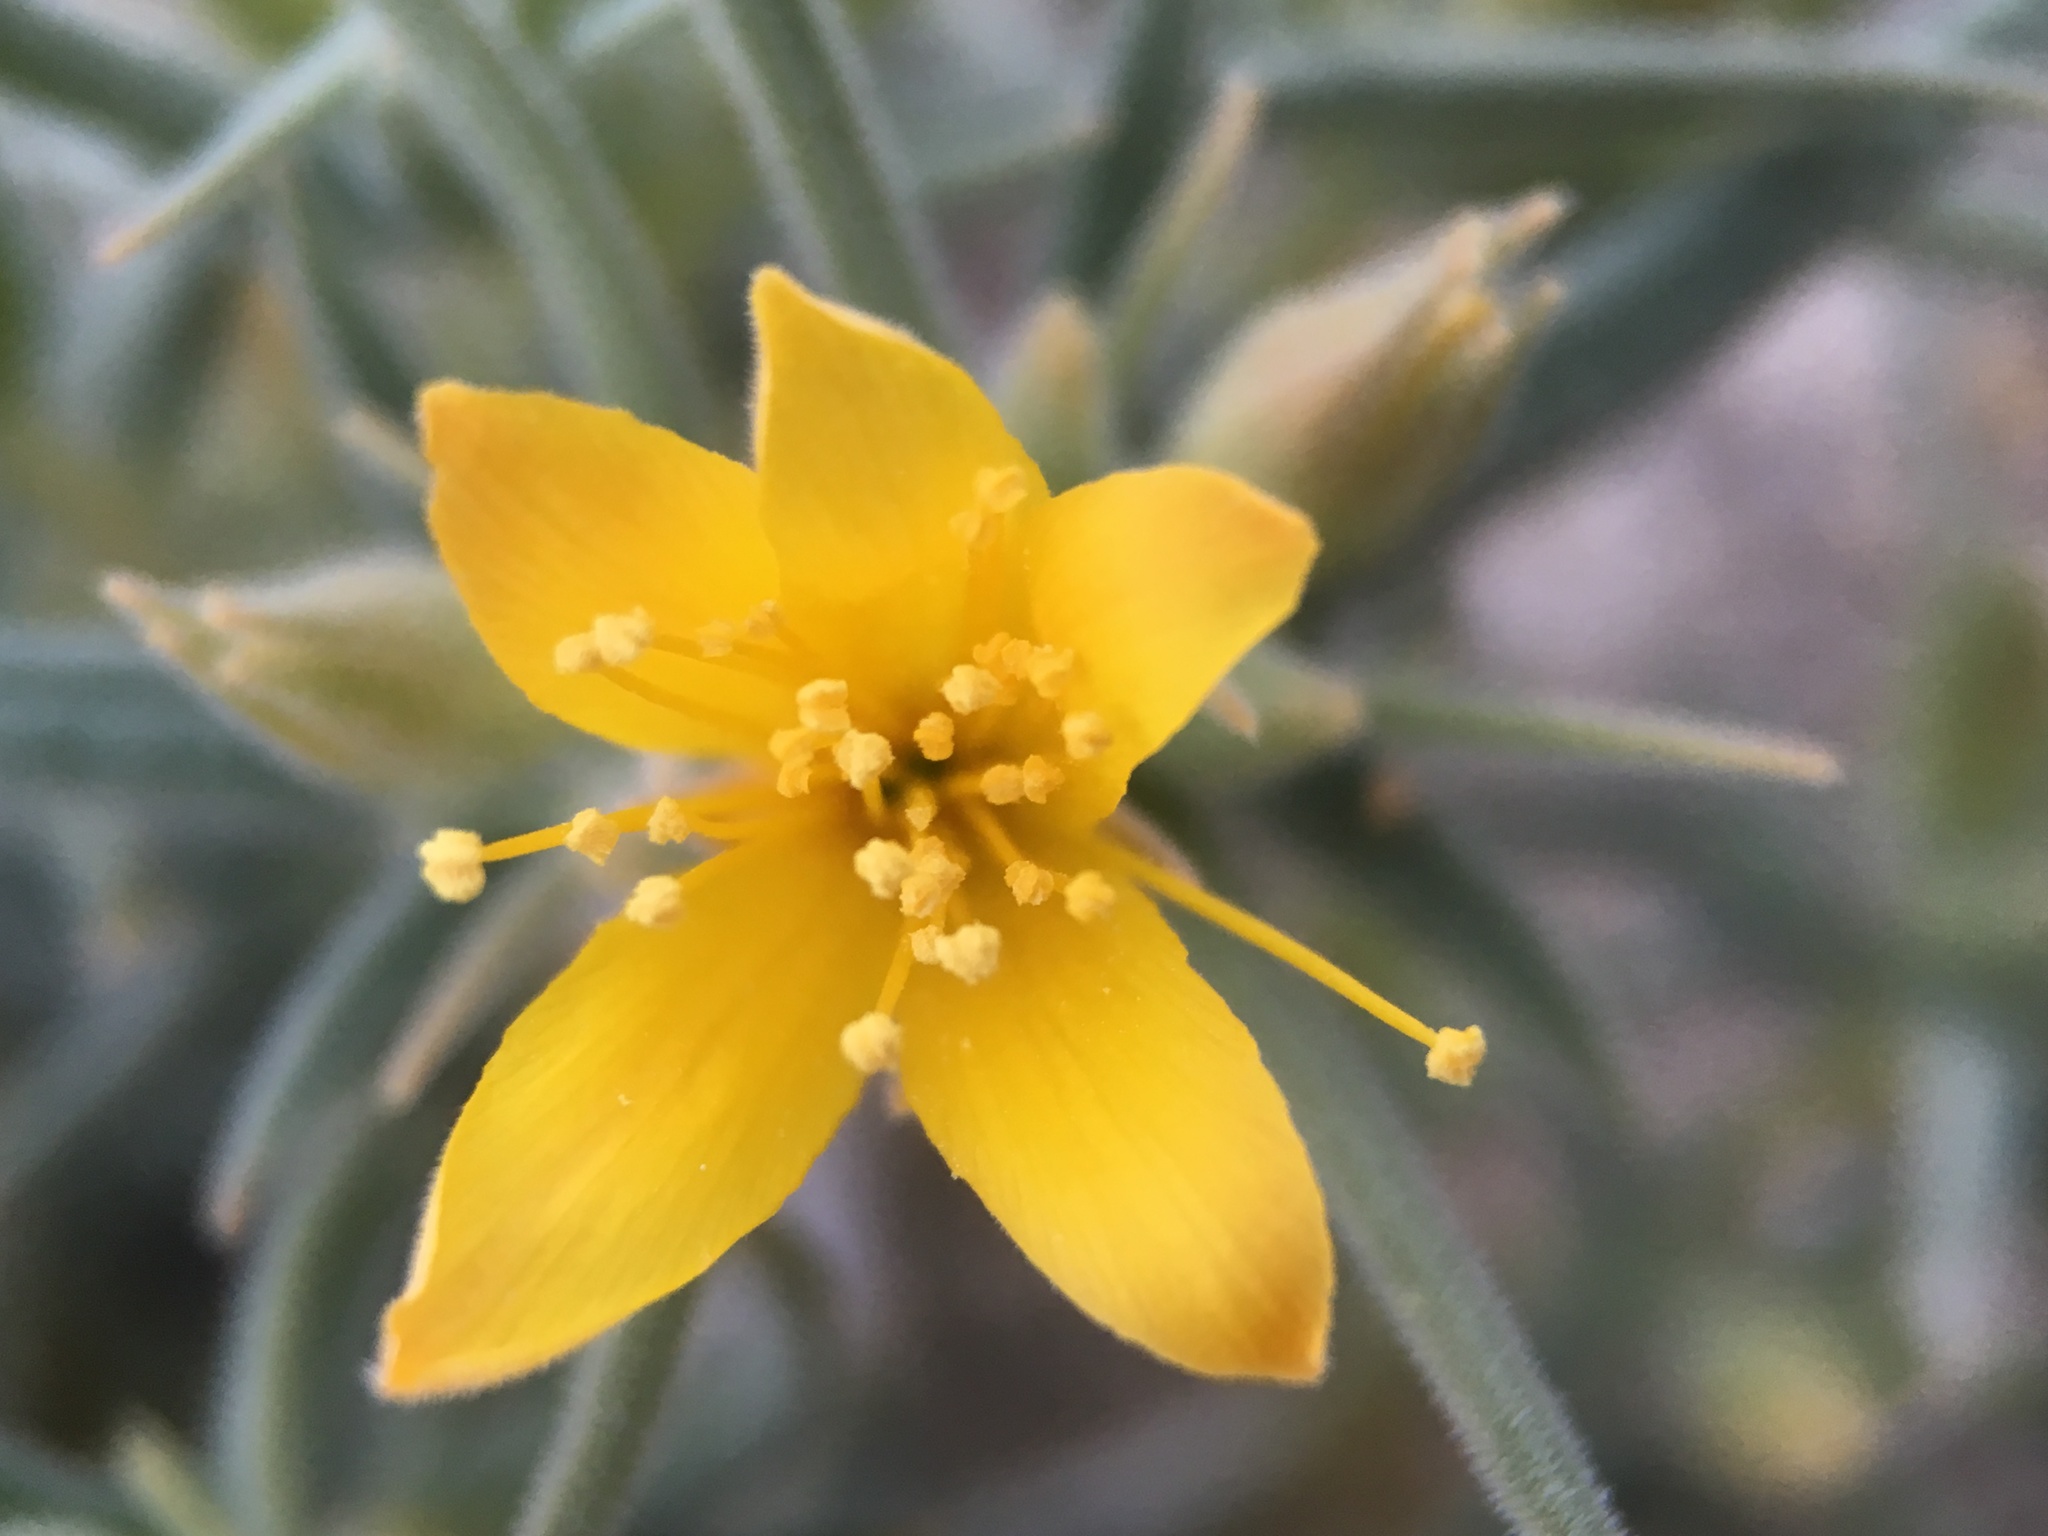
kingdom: Plantae
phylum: Tracheophyta
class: Magnoliopsida
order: Cornales
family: Loasaceae
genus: Mentzelia
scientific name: Mentzelia torreyi
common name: Torrey's blazingstar
